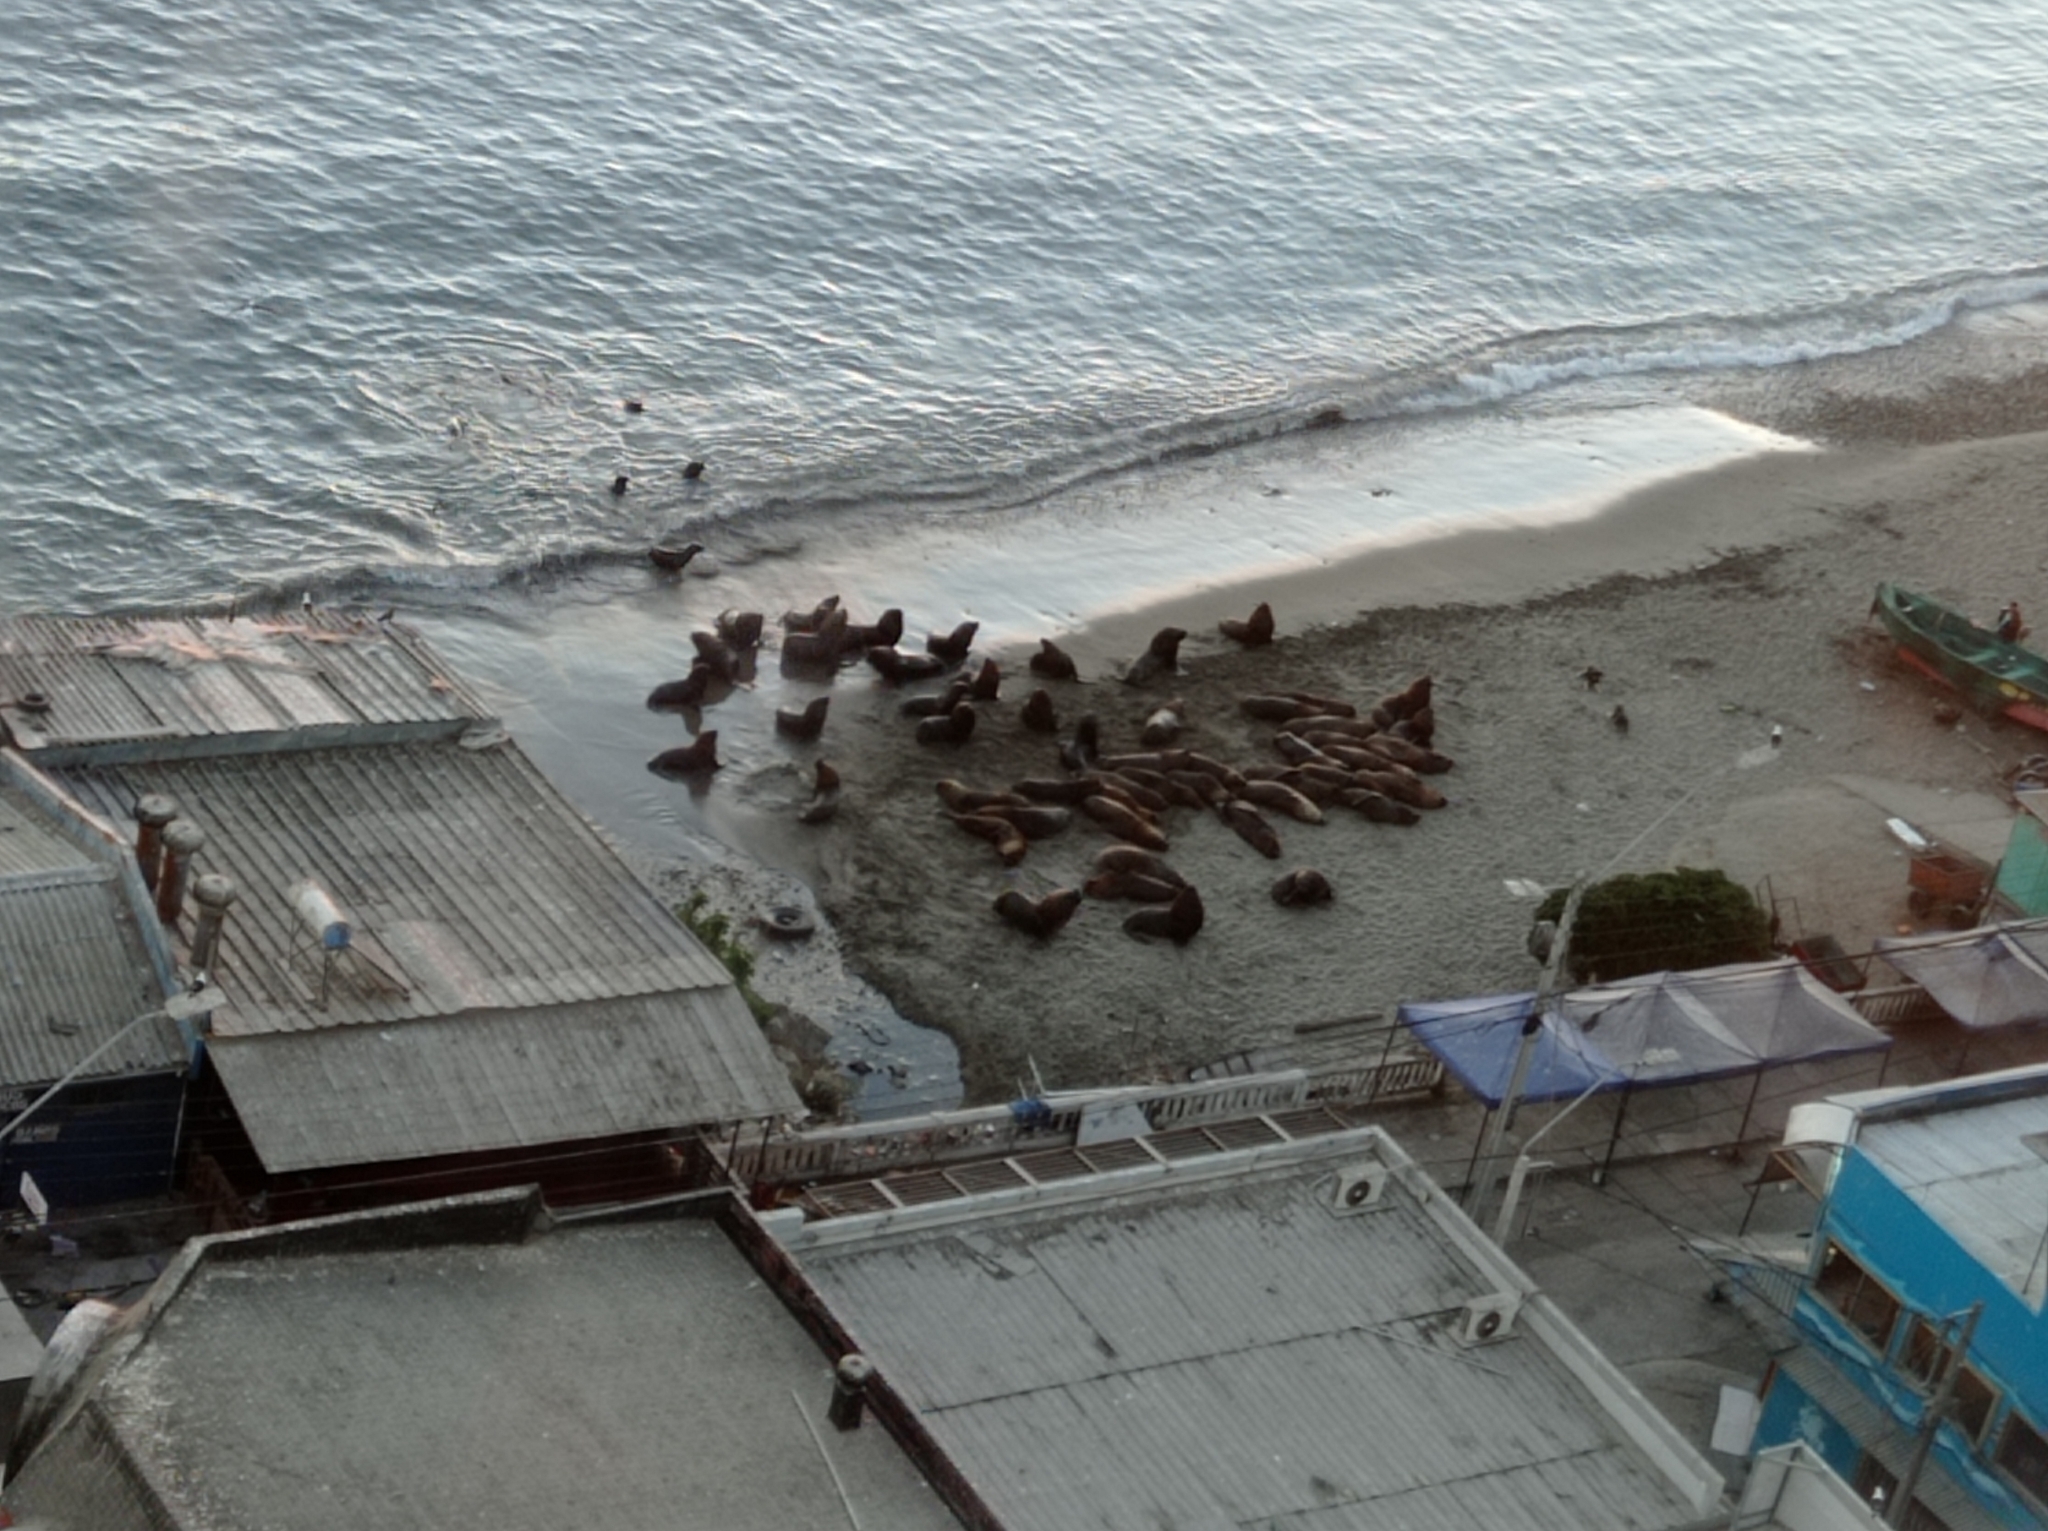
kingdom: Animalia
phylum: Chordata
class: Mammalia
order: Carnivora
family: Otariidae
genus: Otaria
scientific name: Otaria byronia
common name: South american sea lion
